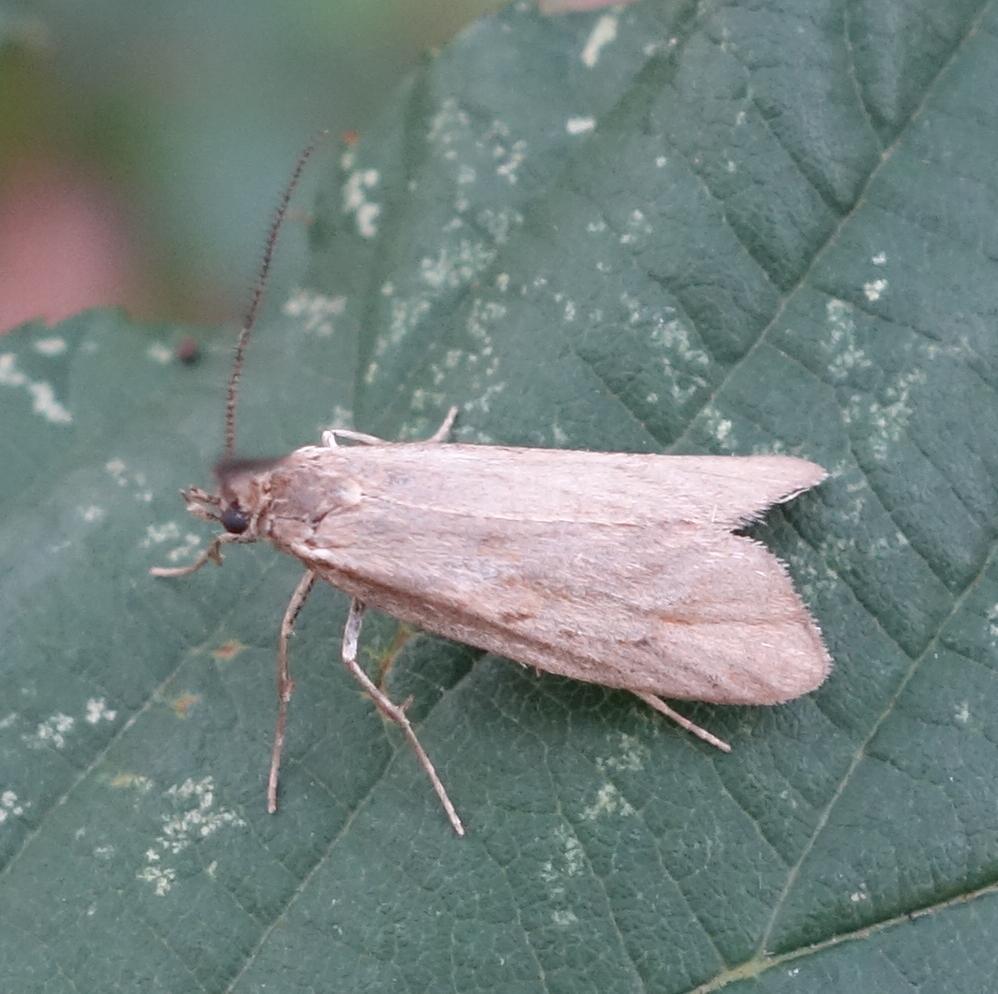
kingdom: Animalia
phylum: Arthropoda
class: Insecta
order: Lepidoptera
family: Lypusidae
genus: Diurnea
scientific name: Diurnea lipsiella
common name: November tubic
